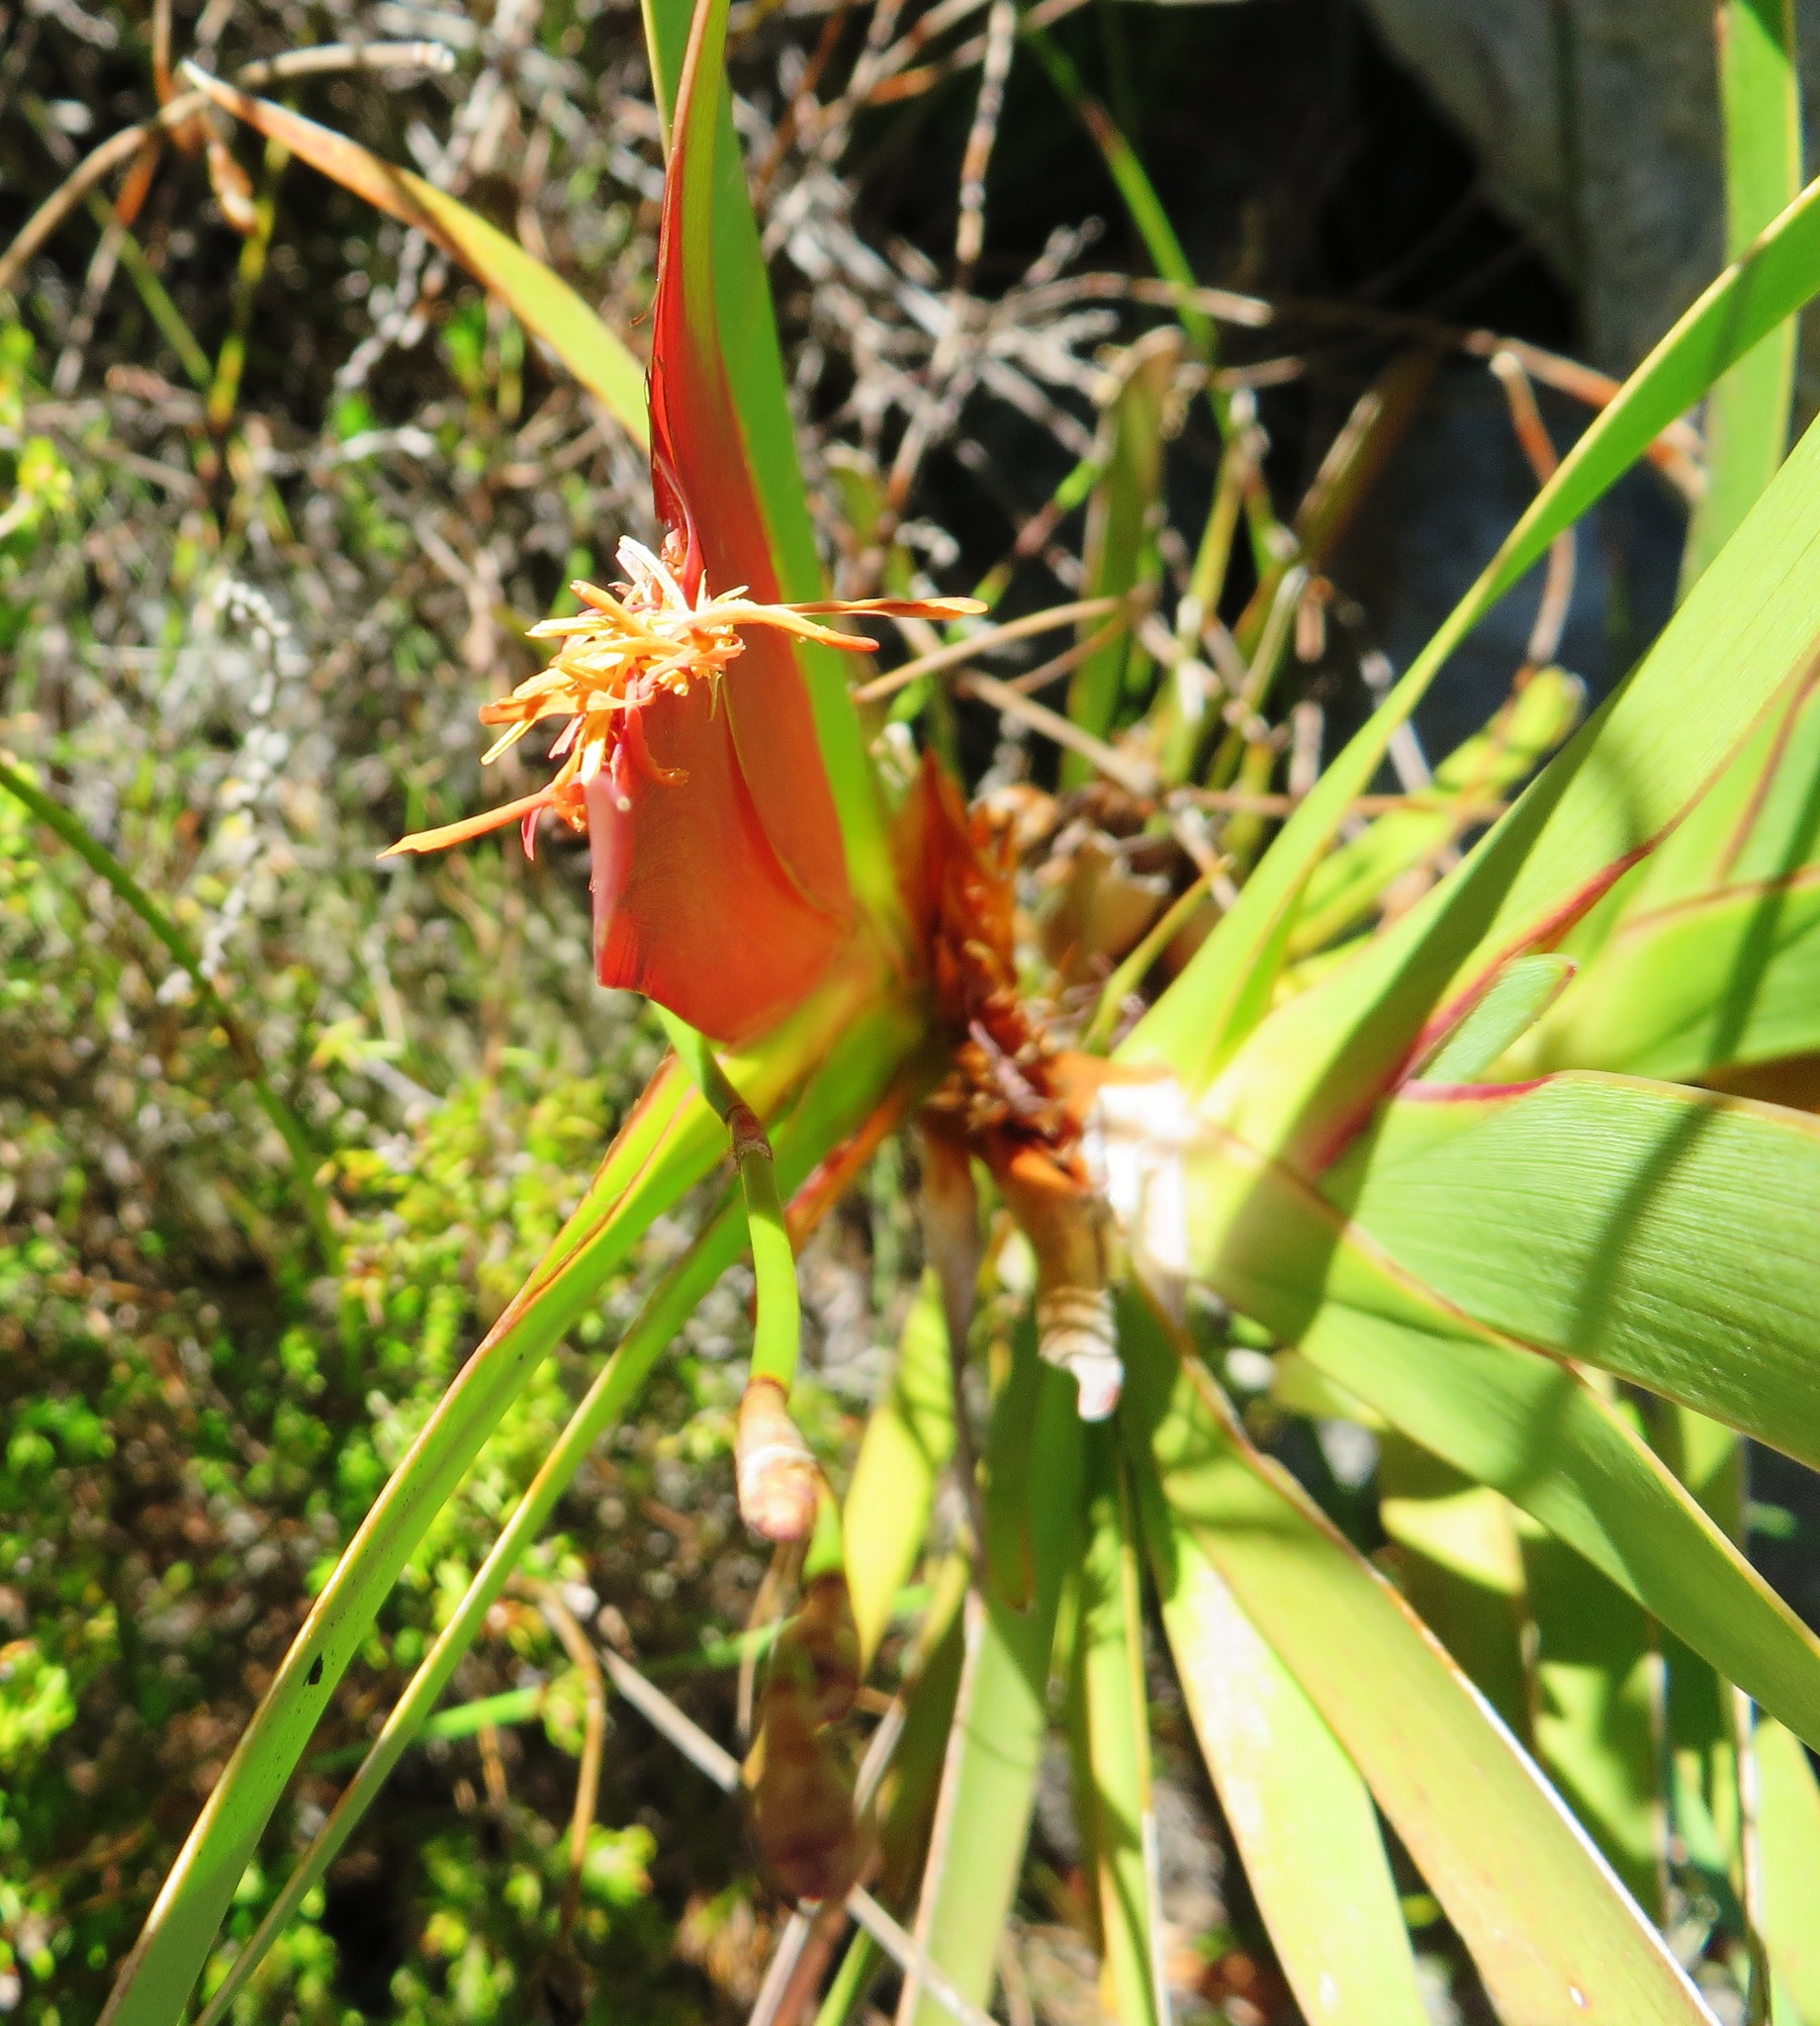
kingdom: Plantae
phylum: Tracheophyta
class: Liliopsida
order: Asparagales
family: Iridaceae
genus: Klattia
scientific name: Klattia stokoei
